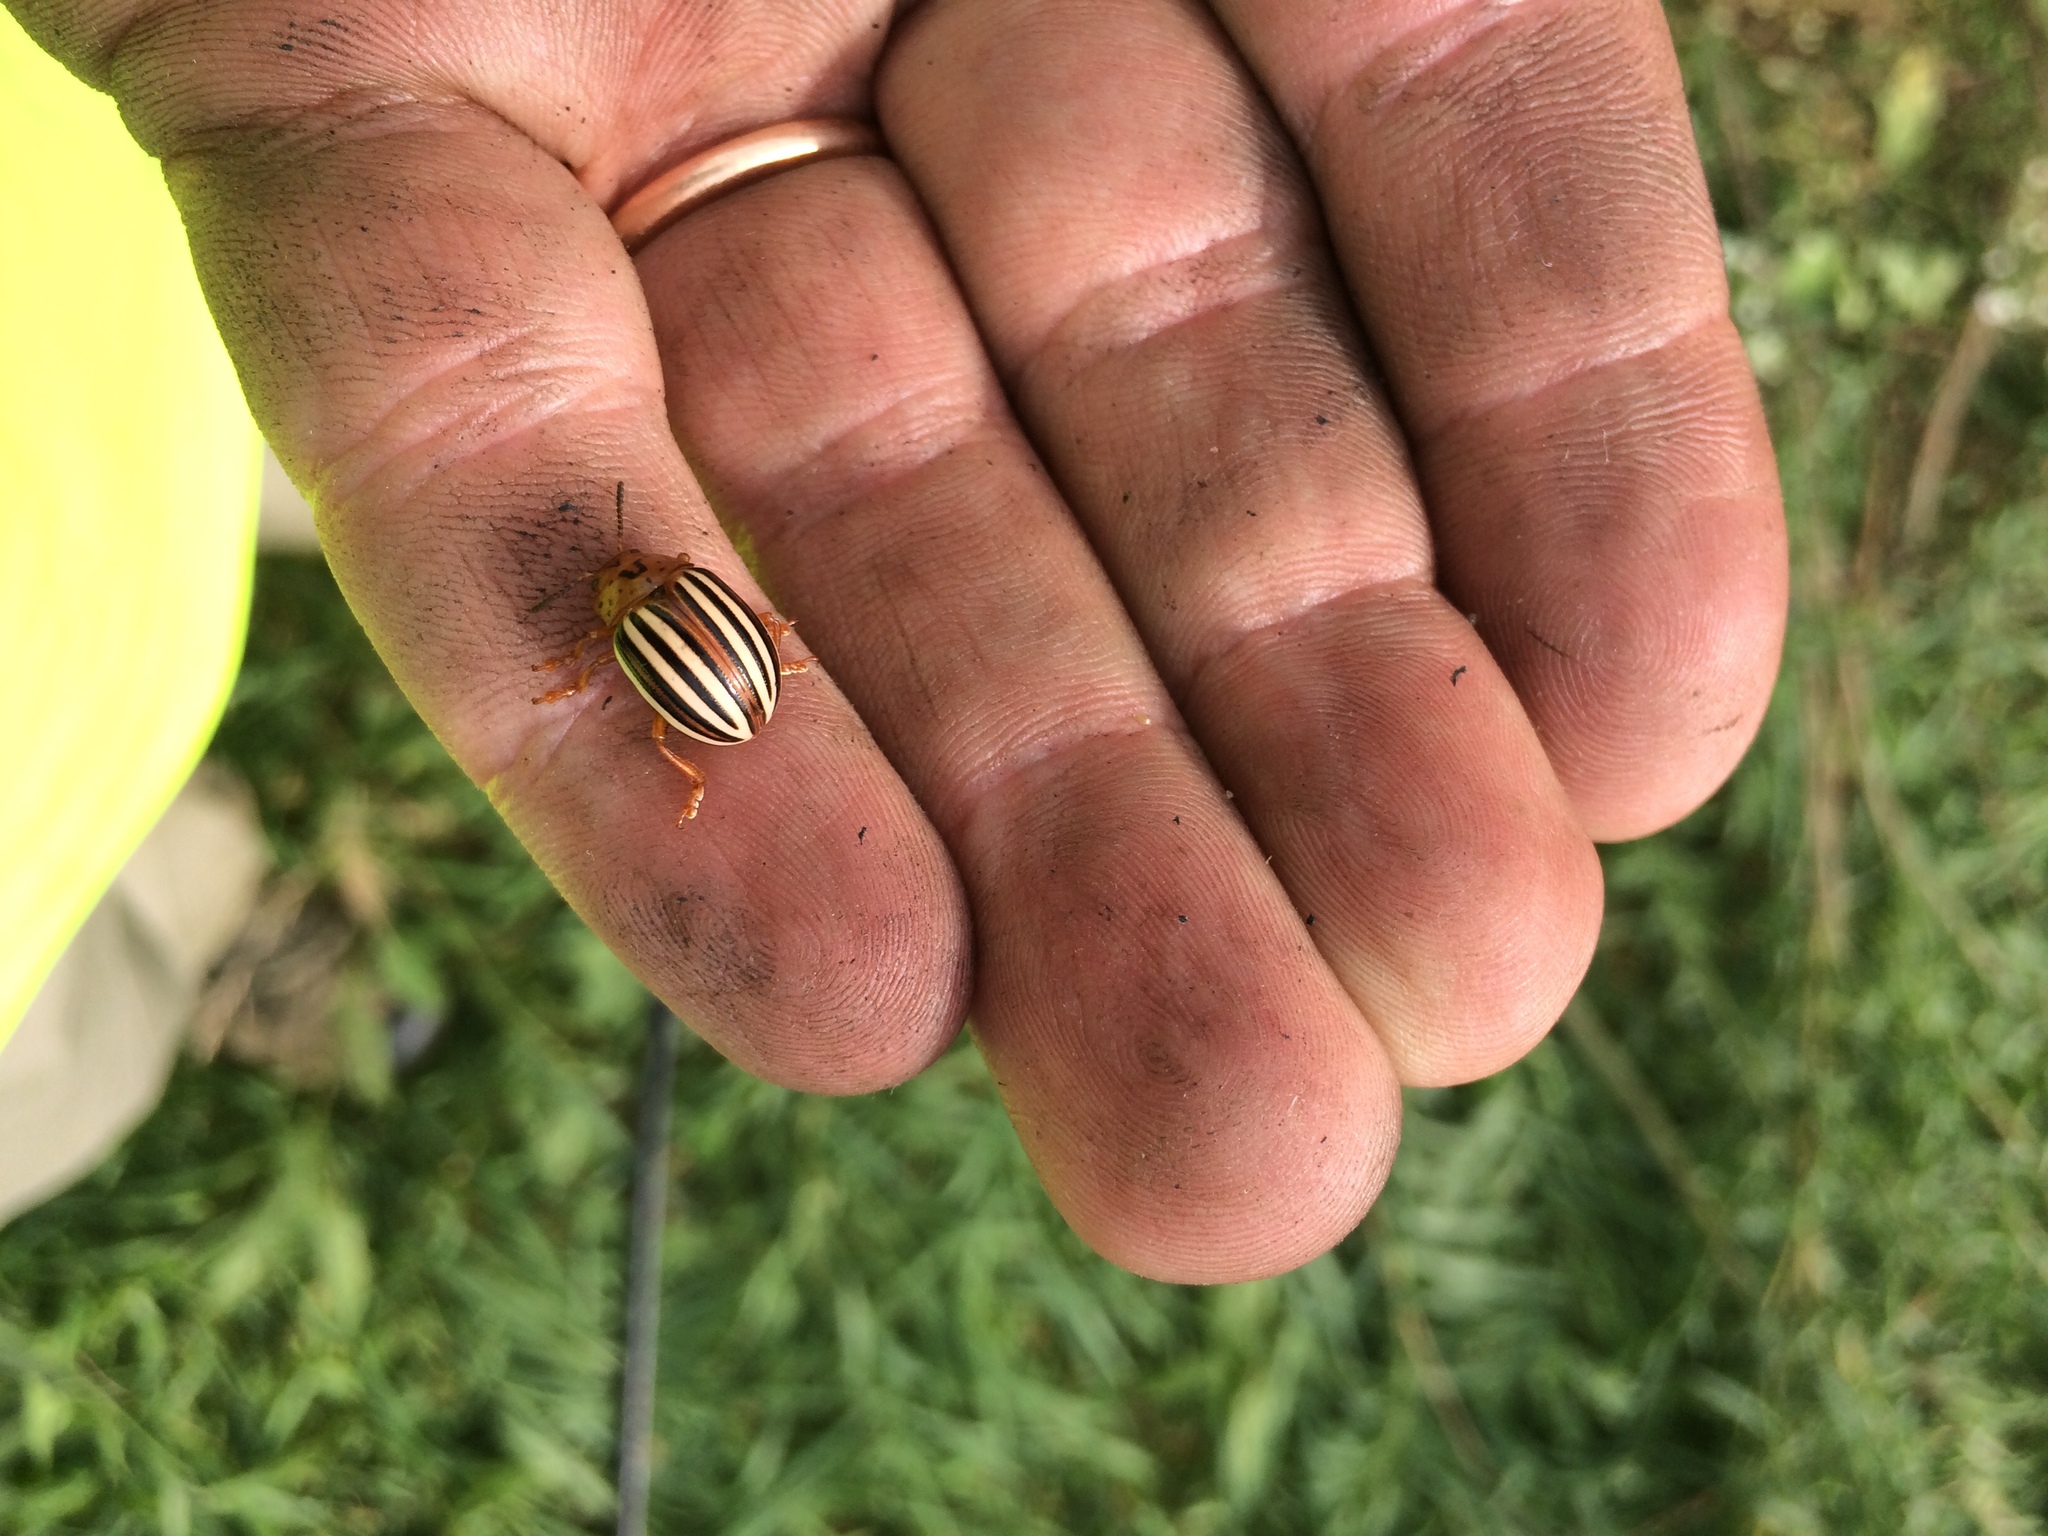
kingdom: Animalia
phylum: Arthropoda
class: Insecta
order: Coleoptera
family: Chrysomelidae
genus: Leptinotarsa
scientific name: Leptinotarsa juncta
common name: False potato beetle
